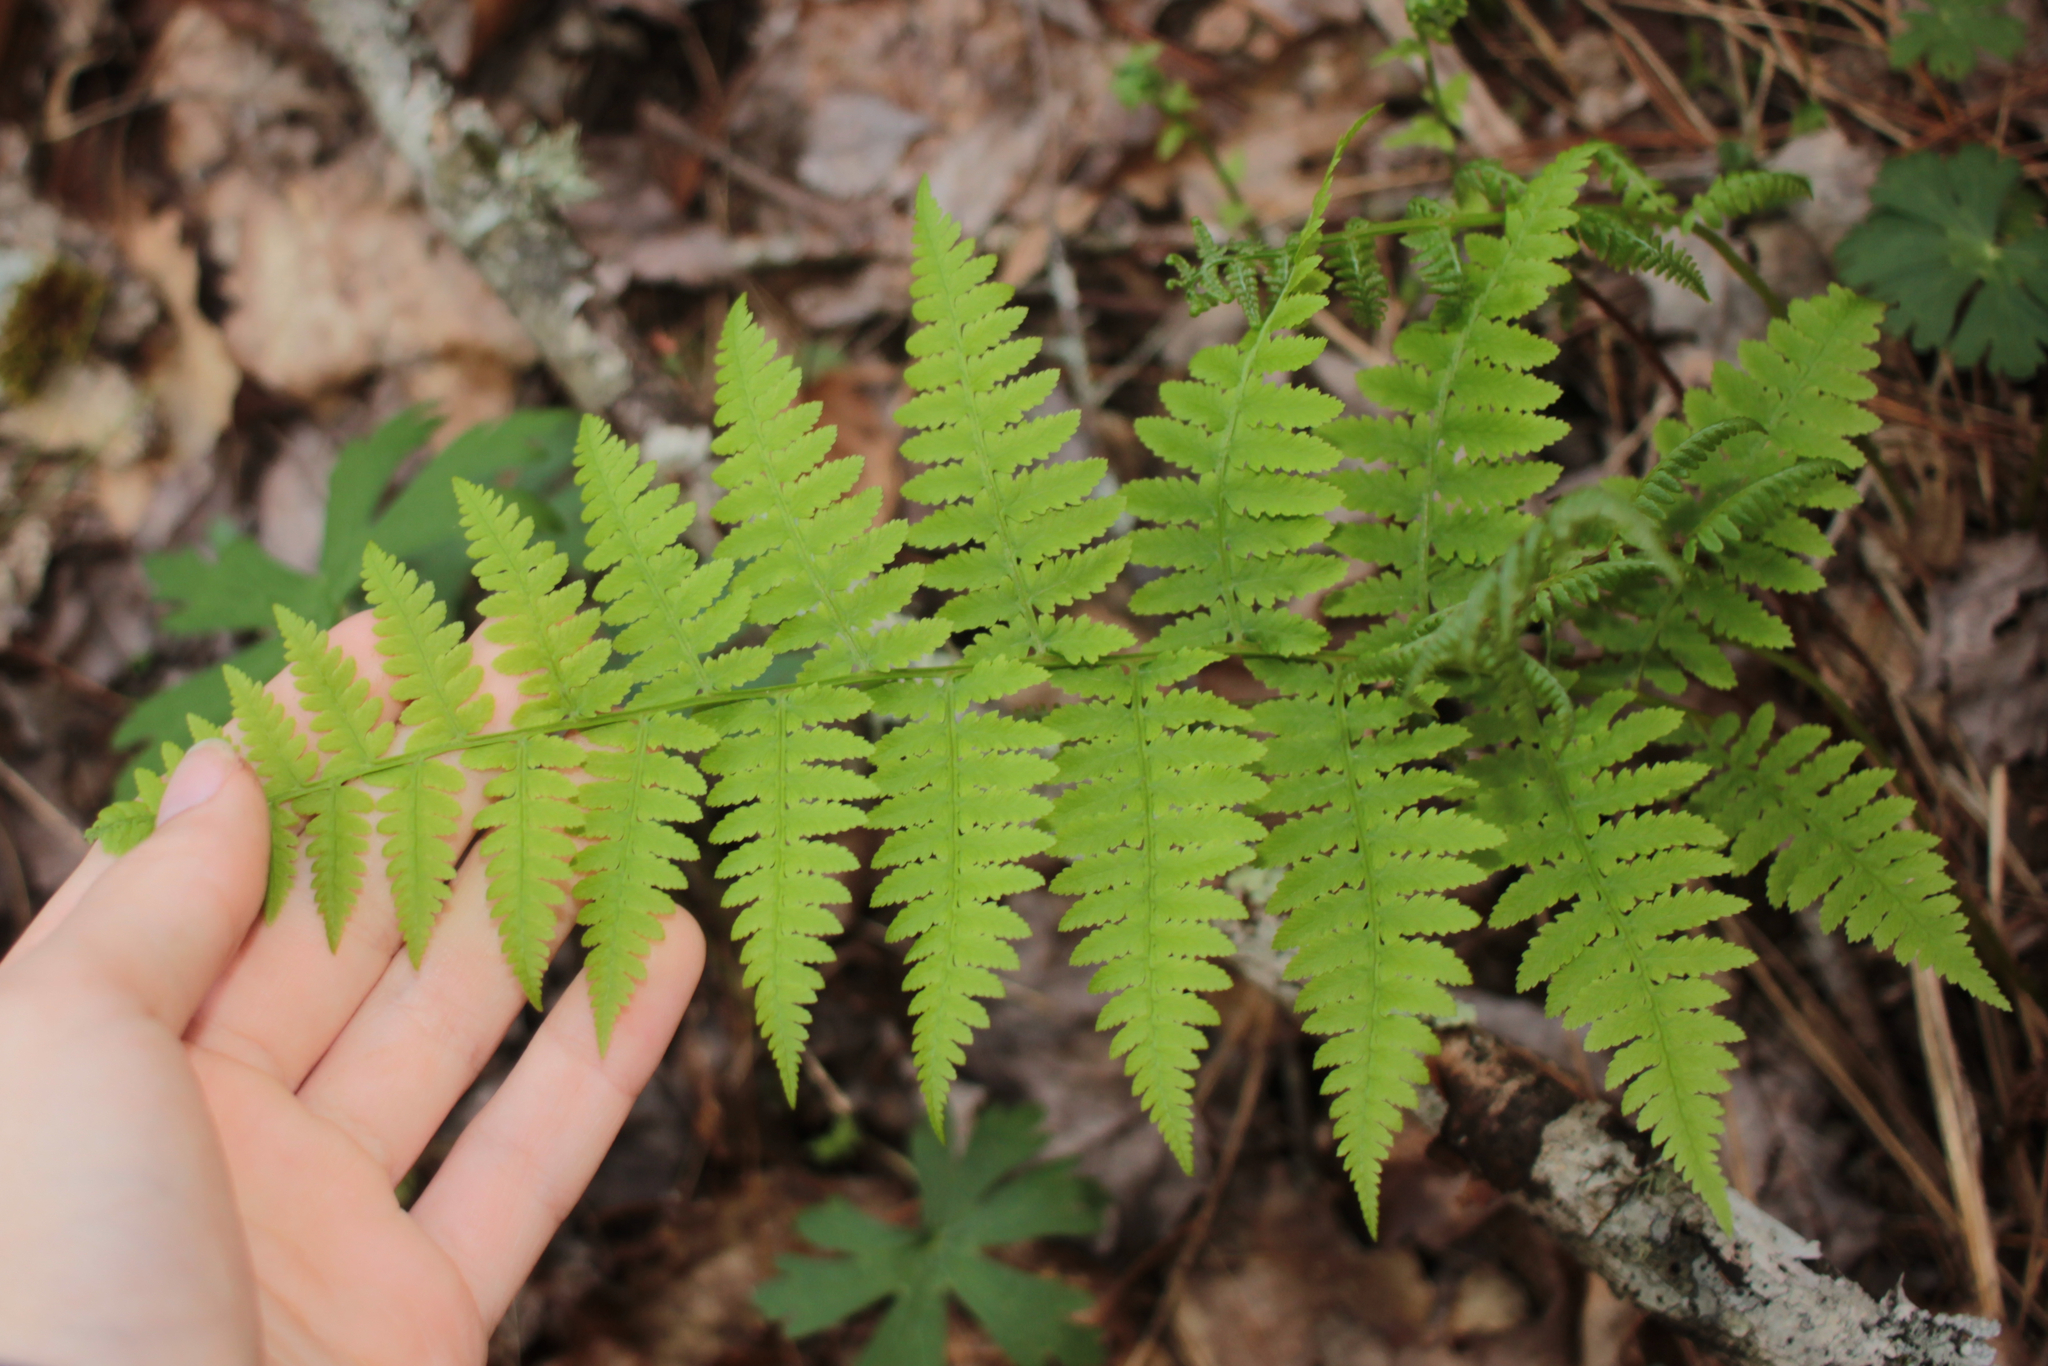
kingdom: Plantae
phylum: Tracheophyta
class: Polypodiopsida
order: Polypodiales
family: Athyriaceae
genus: Athyrium
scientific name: Athyrium asplenioides
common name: Southern lady fern
